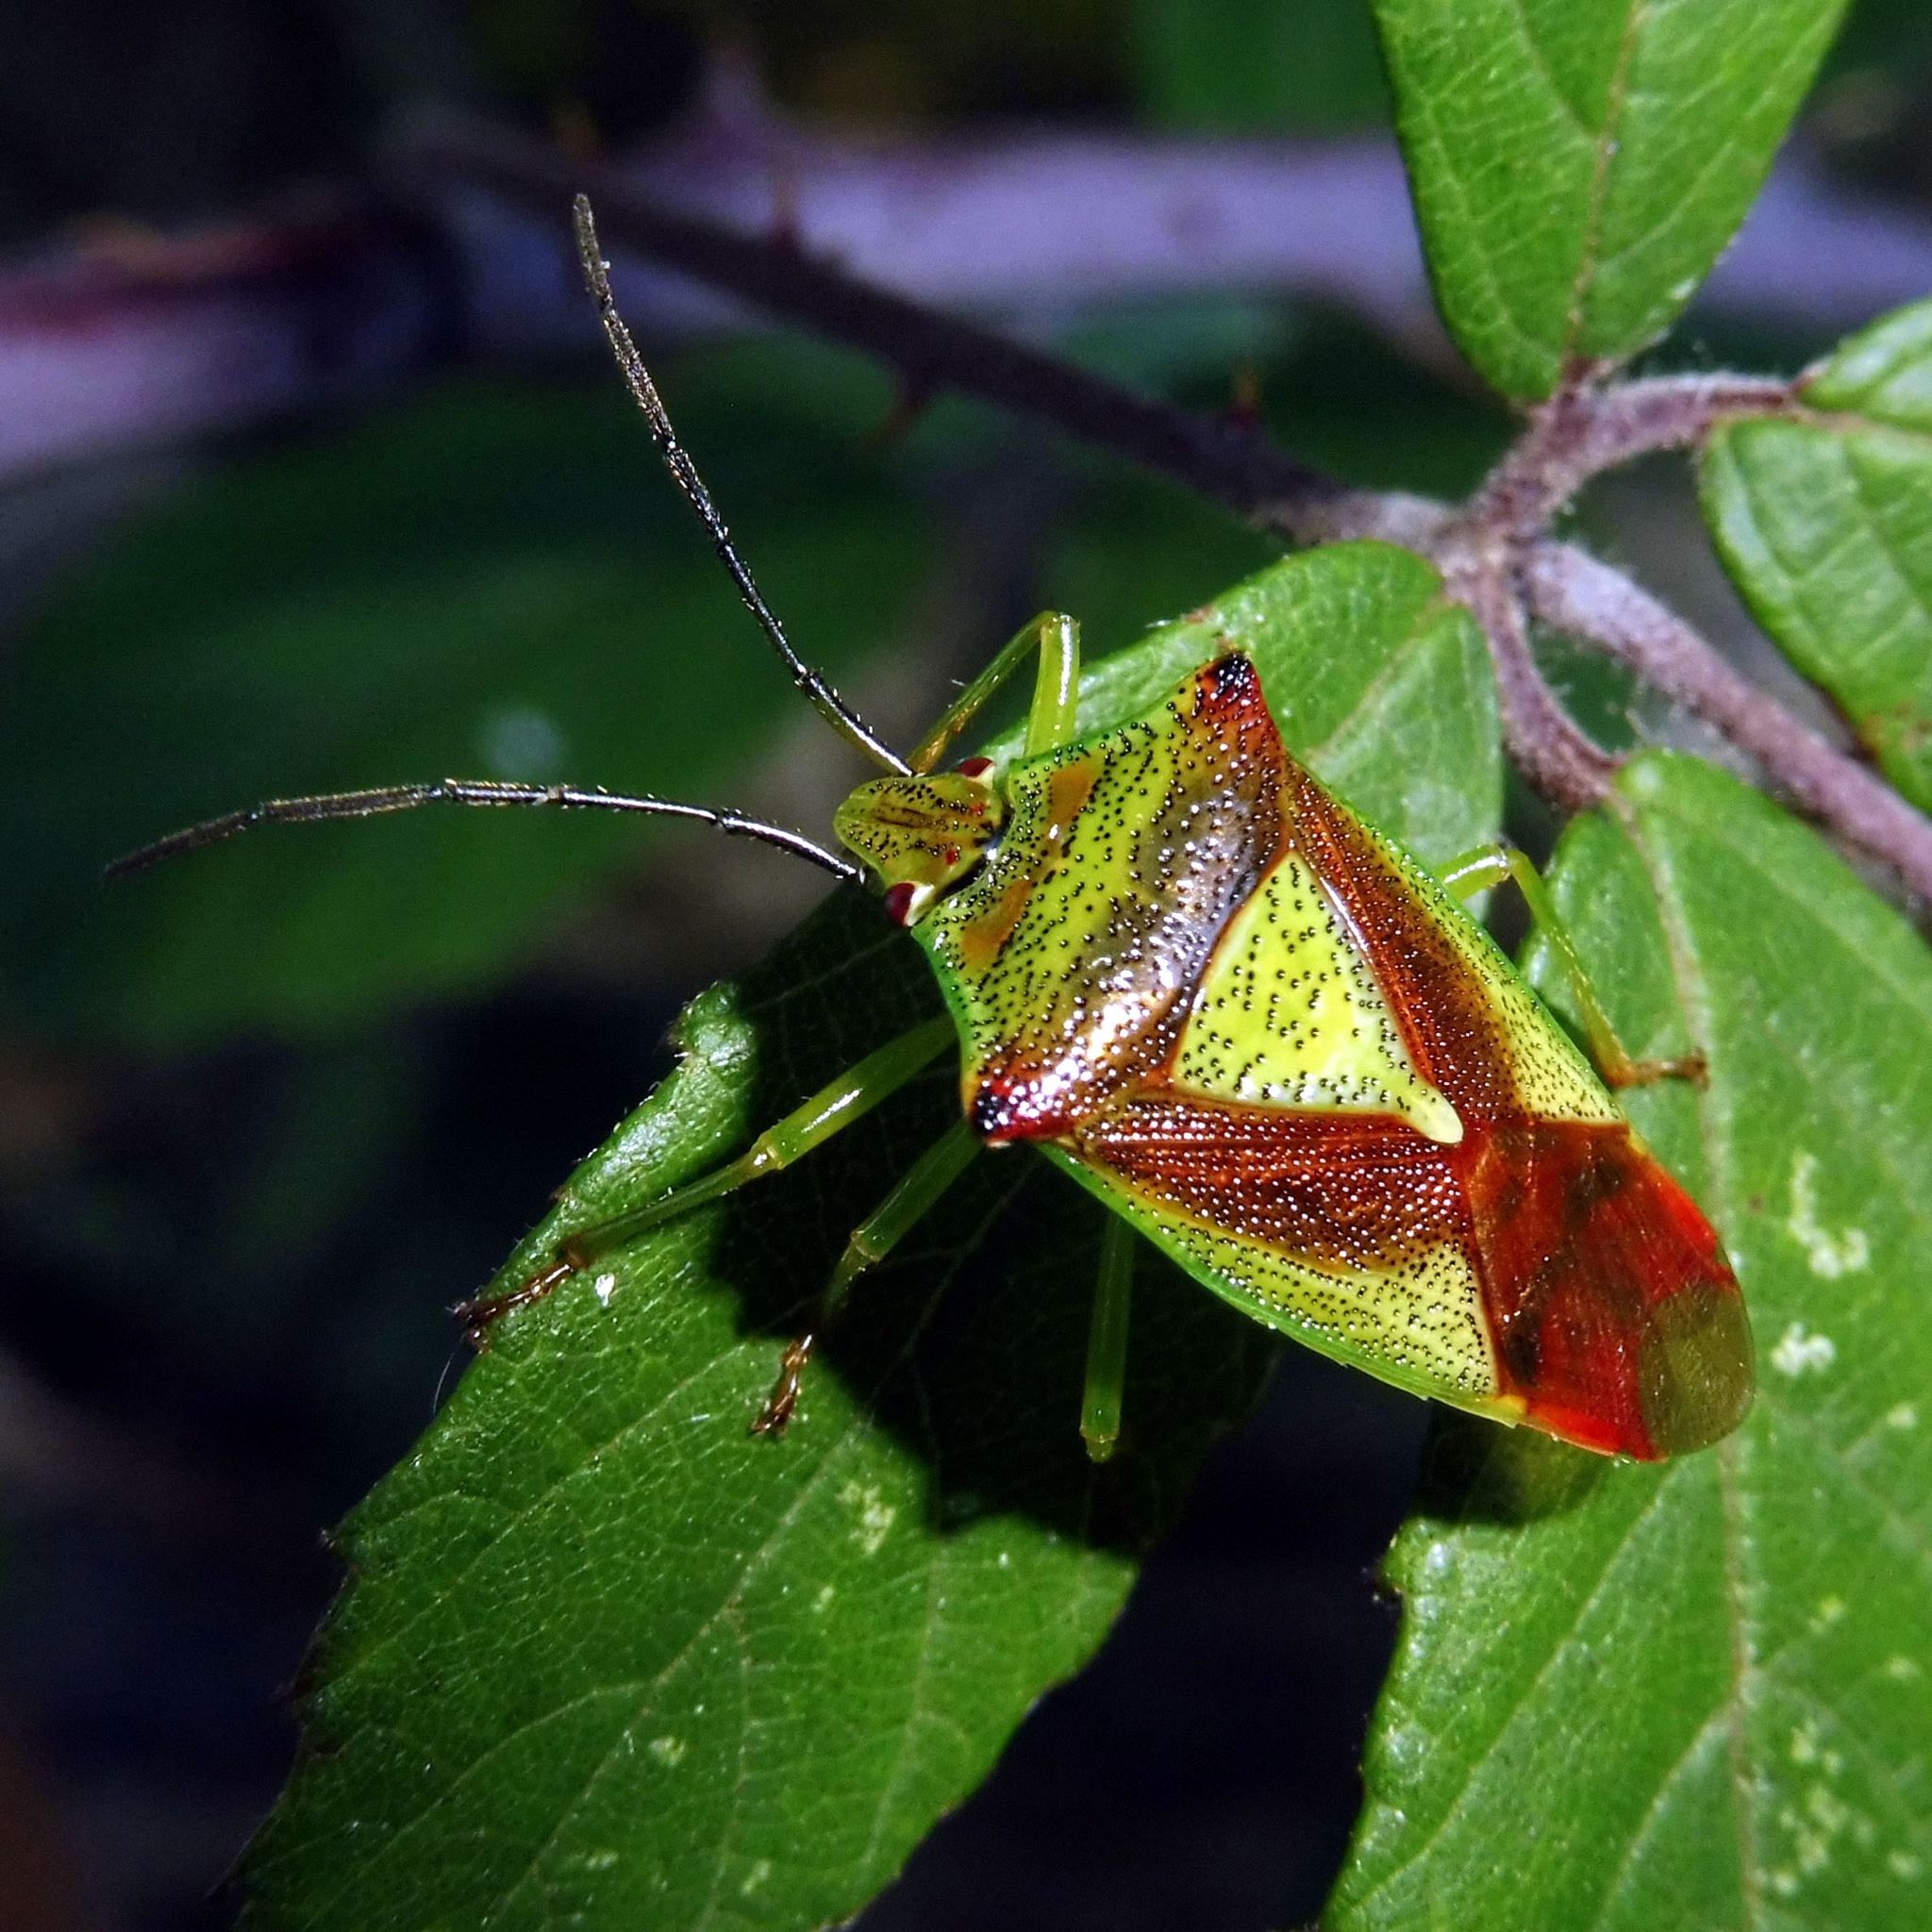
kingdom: Animalia
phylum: Arthropoda
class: Insecta
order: Hemiptera
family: Acanthosomatidae
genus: Acanthosoma
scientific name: Acanthosoma haemorrhoidale
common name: Hawthorn shieldbug
